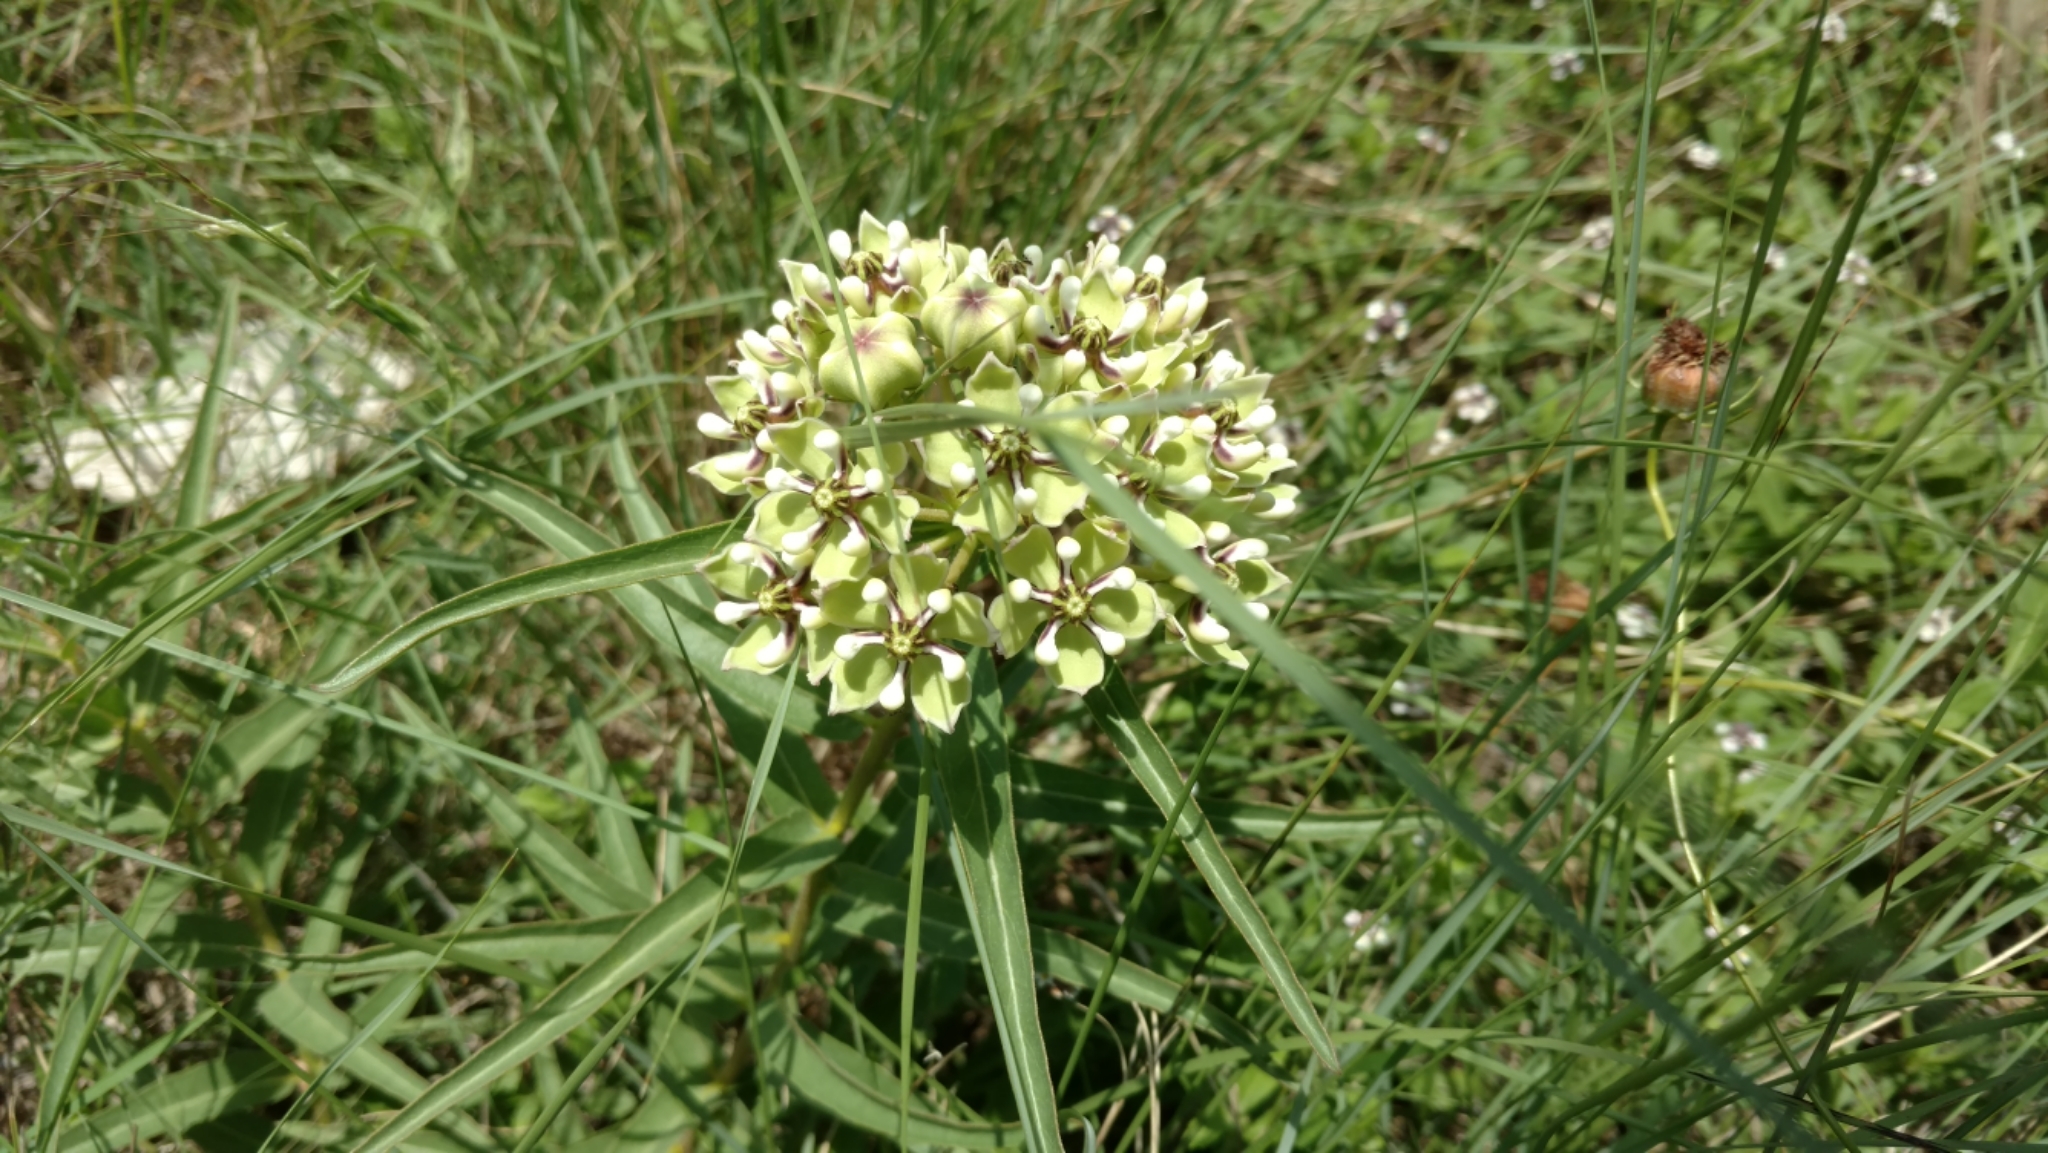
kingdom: Plantae
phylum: Tracheophyta
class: Magnoliopsida
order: Gentianales
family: Apocynaceae
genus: Asclepias
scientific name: Asclepias asperula
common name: Antelope horns
